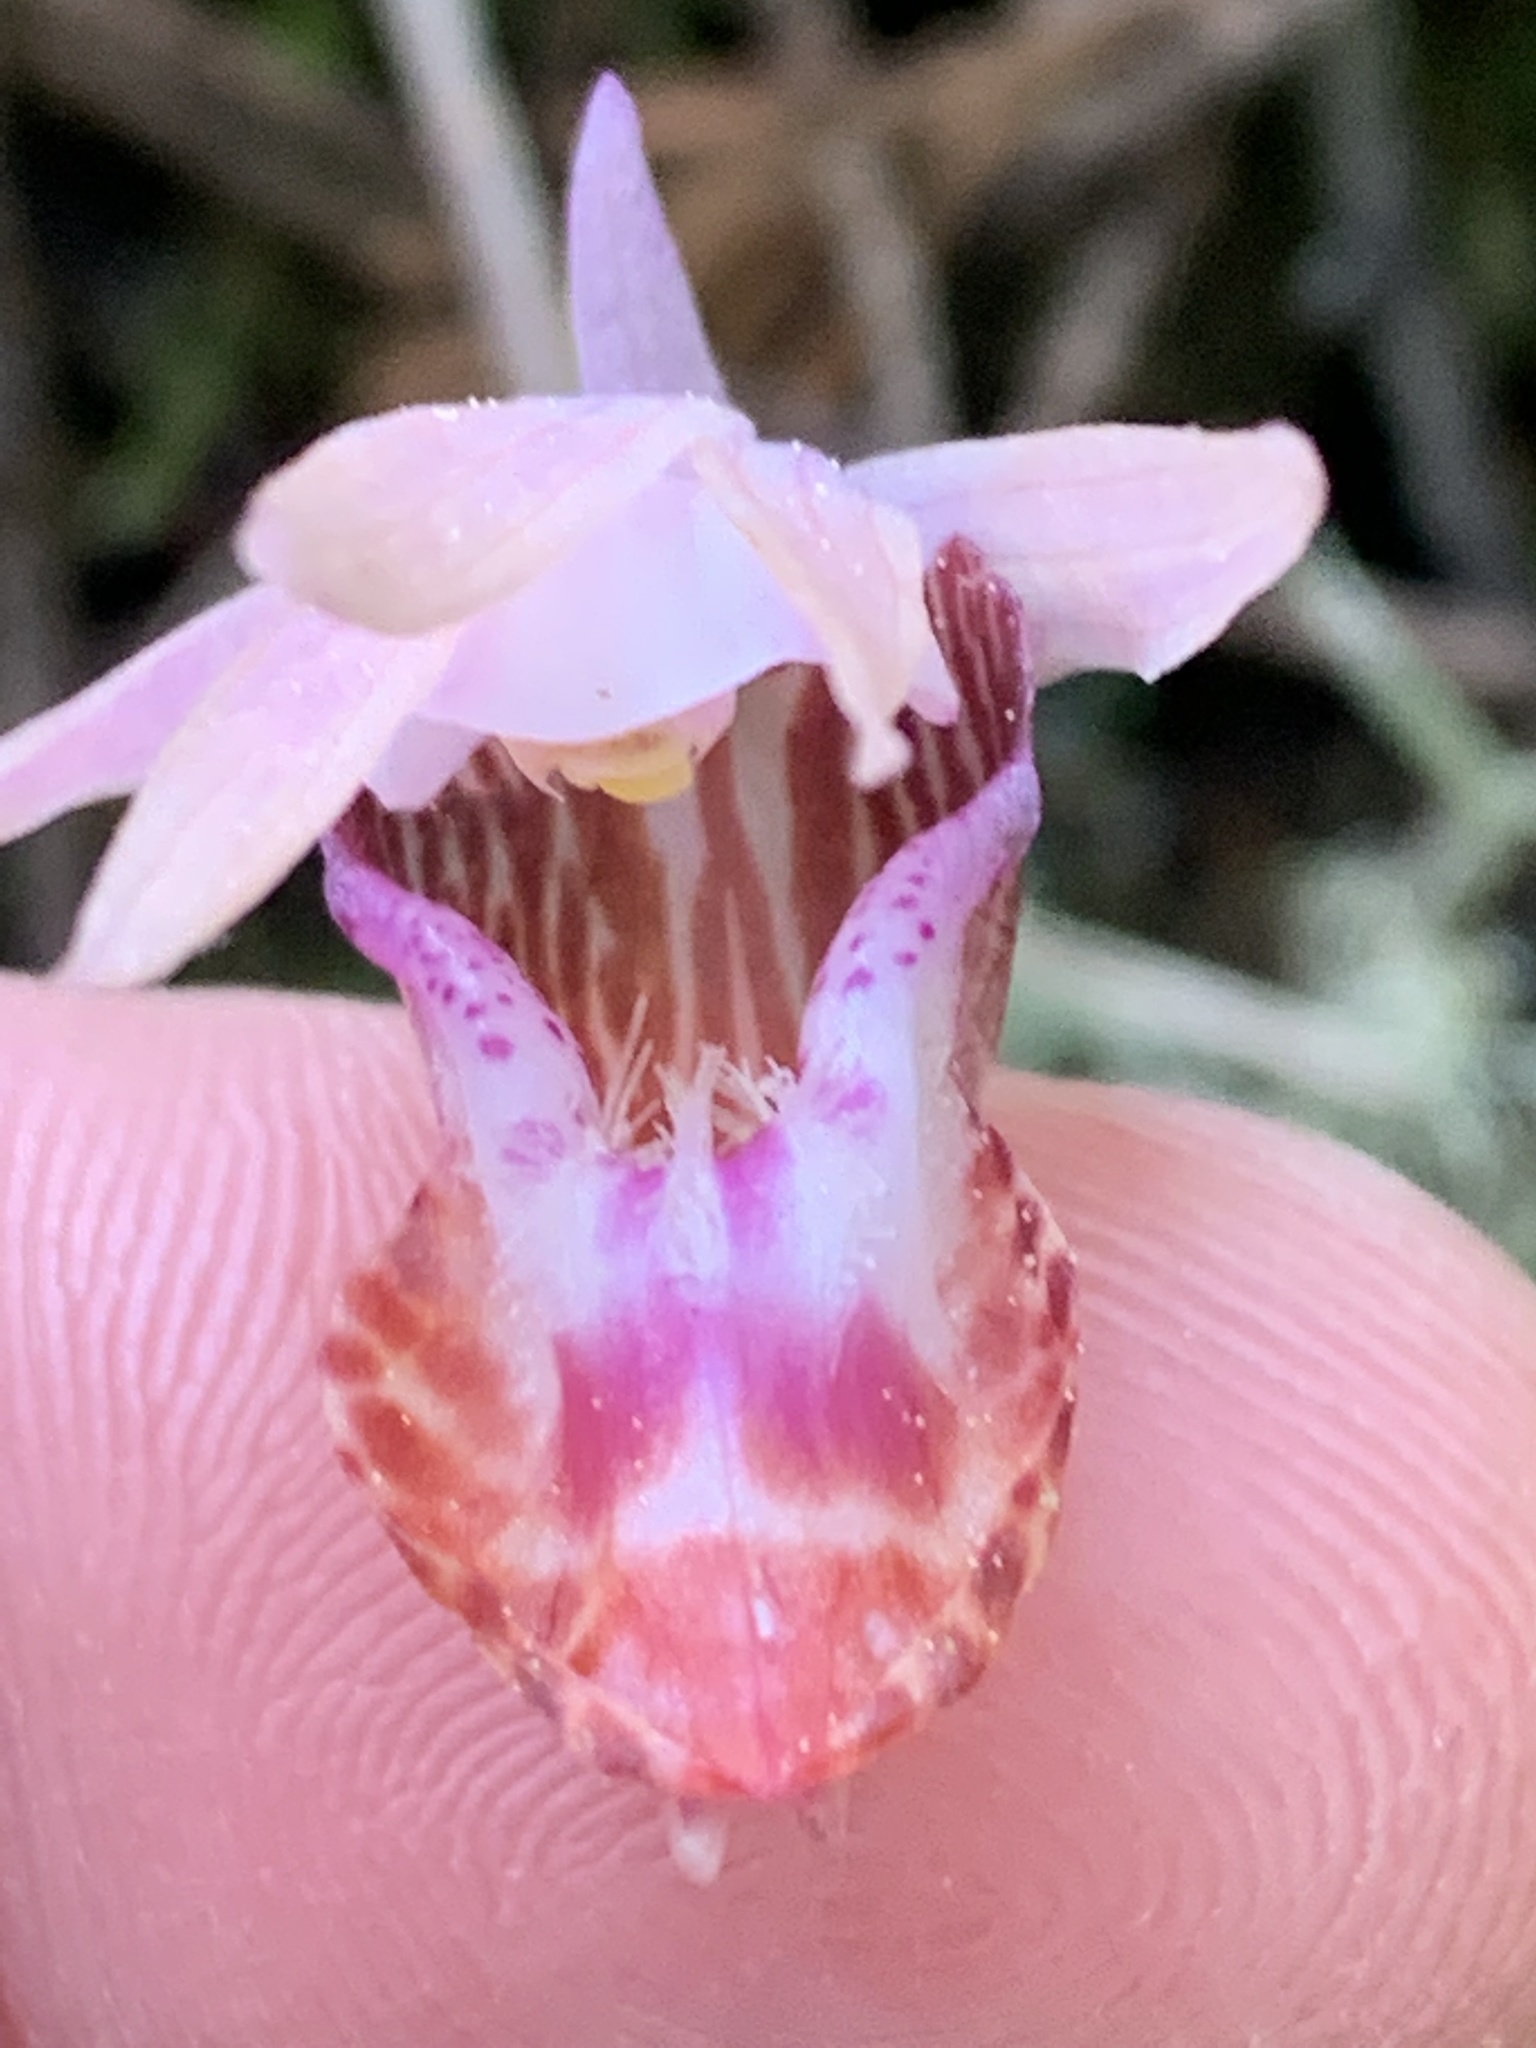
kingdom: Plantae
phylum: Tracheophyta
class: Liliopsida
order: Asparagales
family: Orchidaceae
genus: Calypso
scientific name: Calypso bulbosa
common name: Calypso
